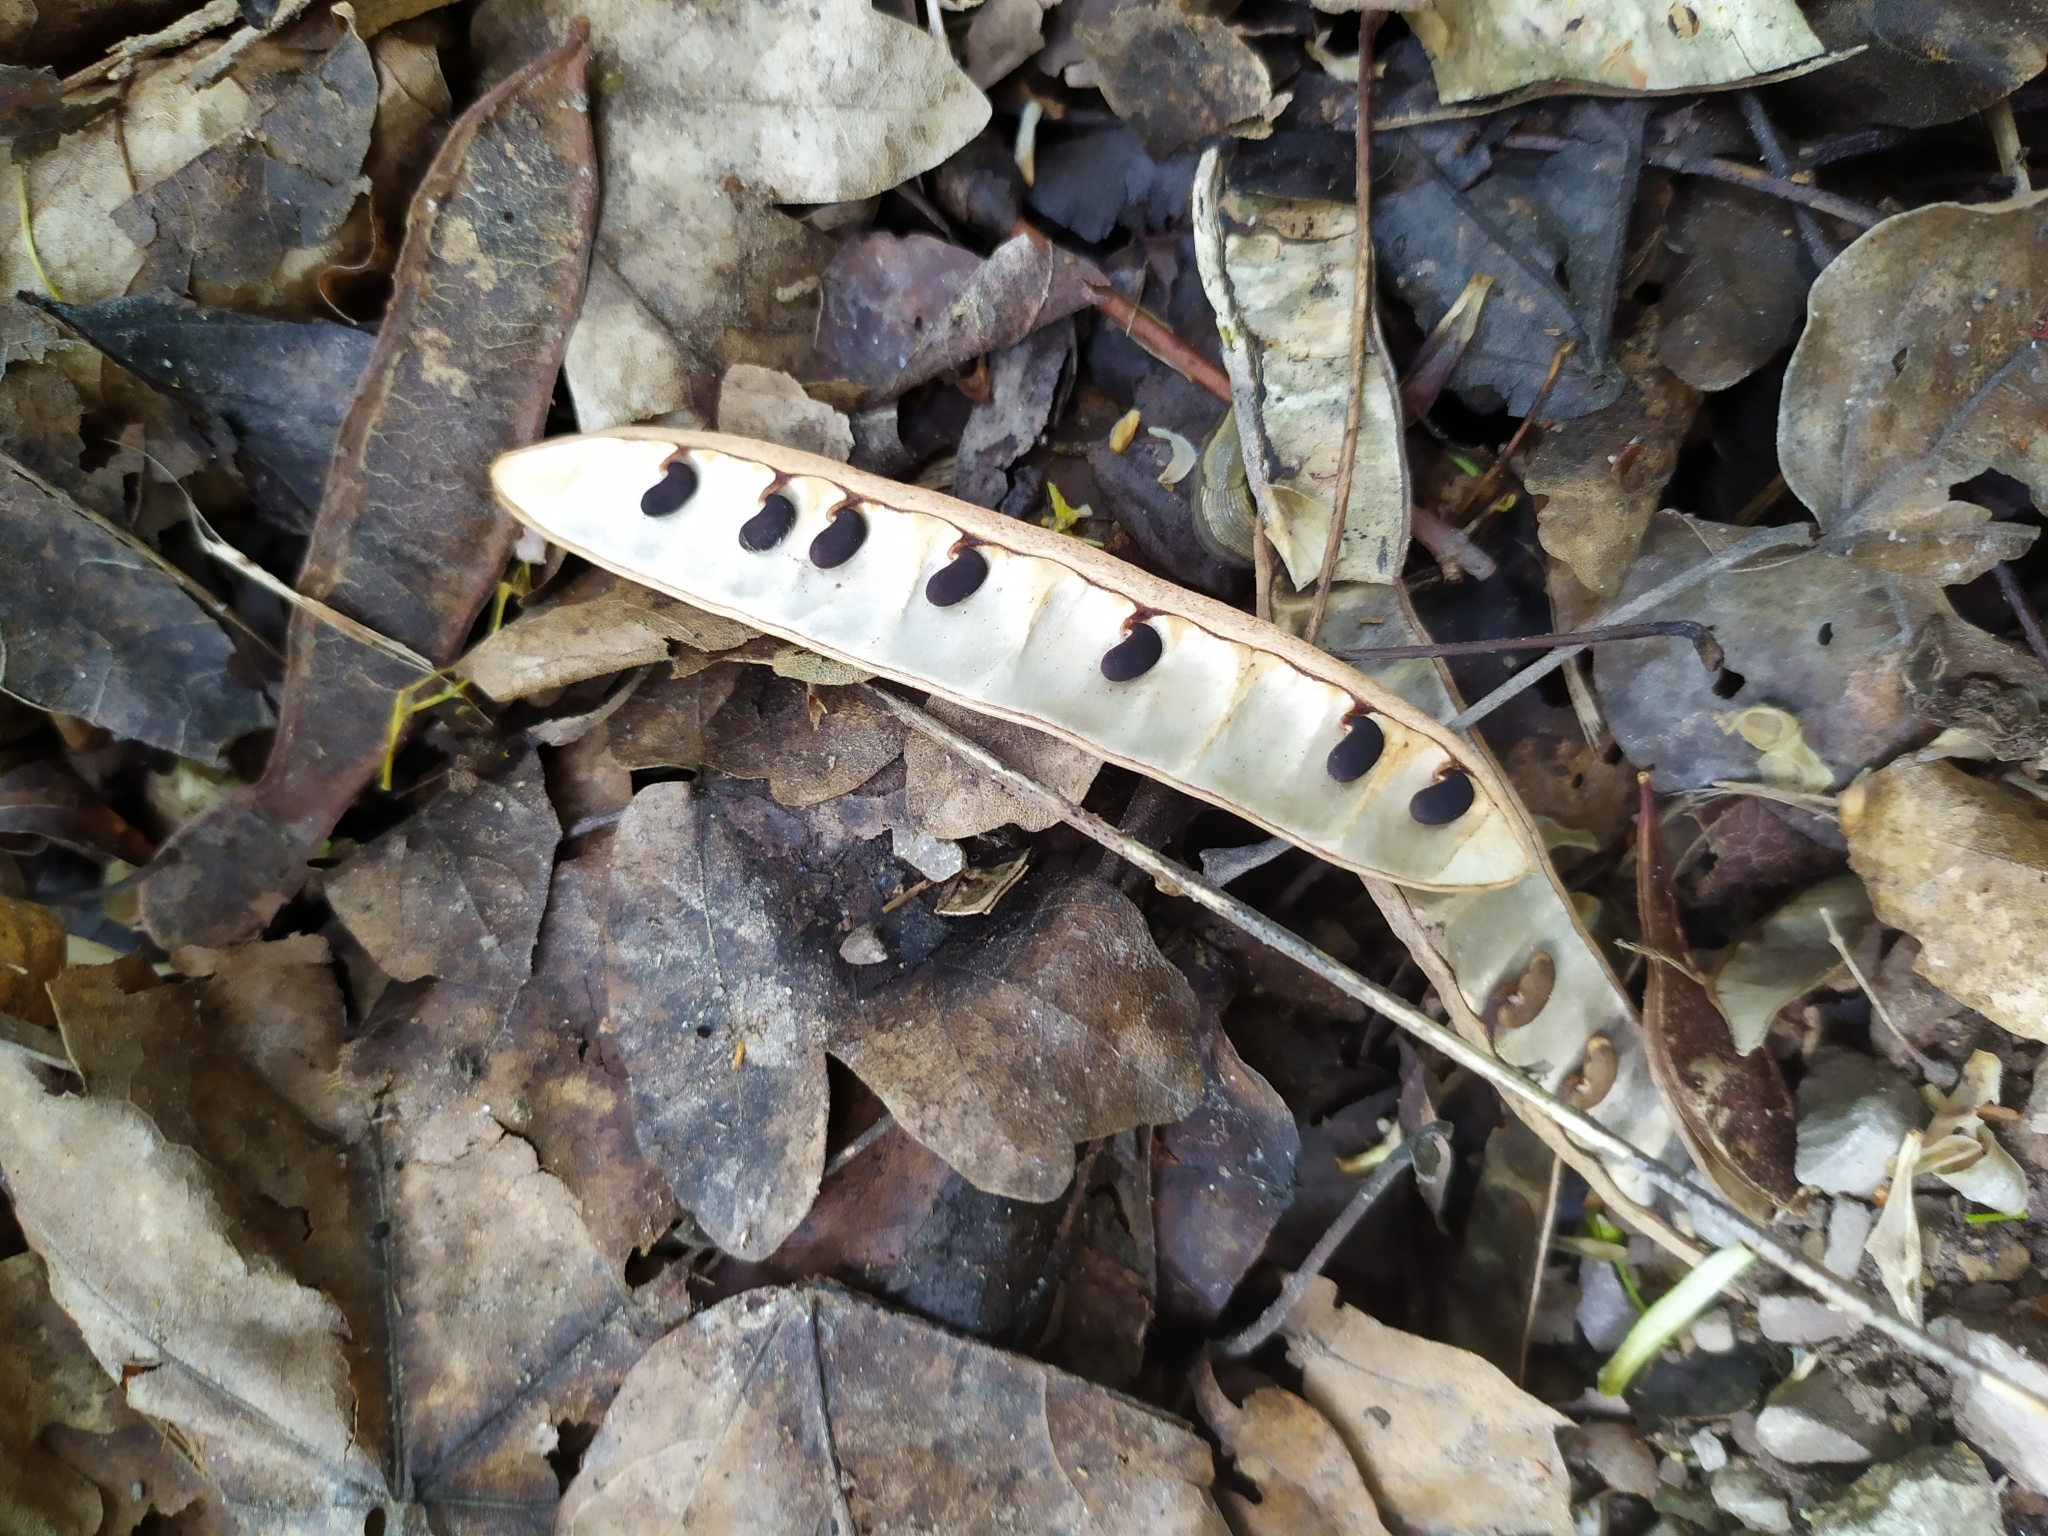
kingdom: Plantae
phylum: Tracheophyta
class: Magnoliopsida
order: Fabales
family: Fabaceae
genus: Robinia
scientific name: Robinia pseudoacacia
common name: Black locust
